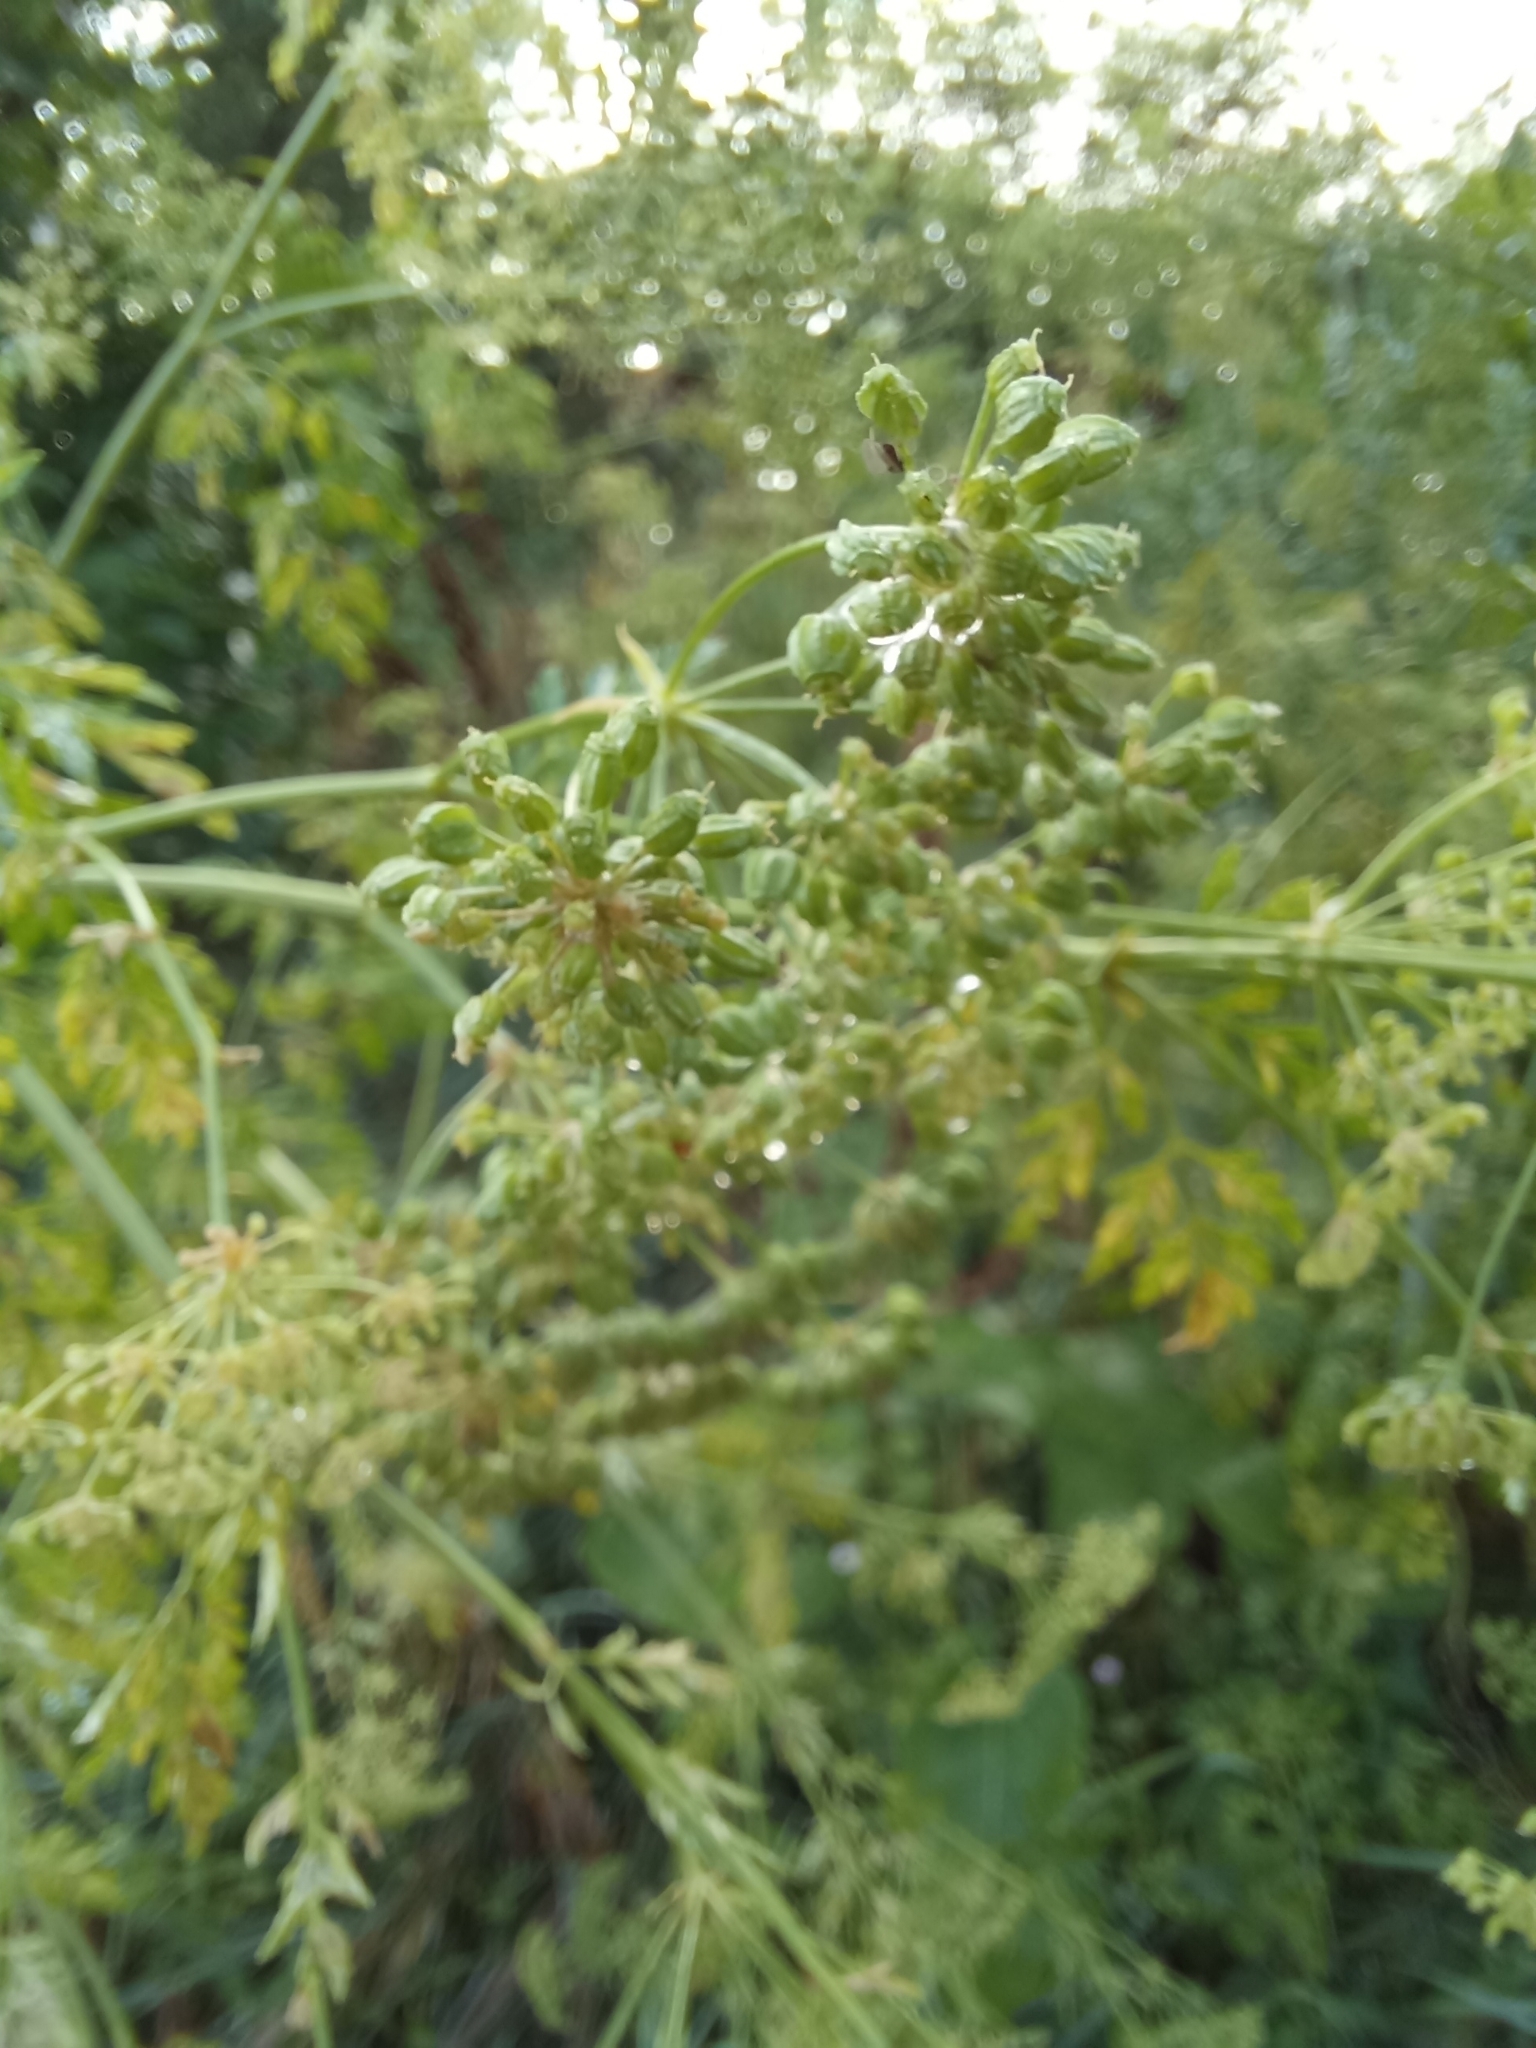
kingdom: Plantae
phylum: Tracheophyta
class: Magnoliopsida
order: Apiales
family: Apiaceae
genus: Conium
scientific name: Conium maculatum
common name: Hemlock
